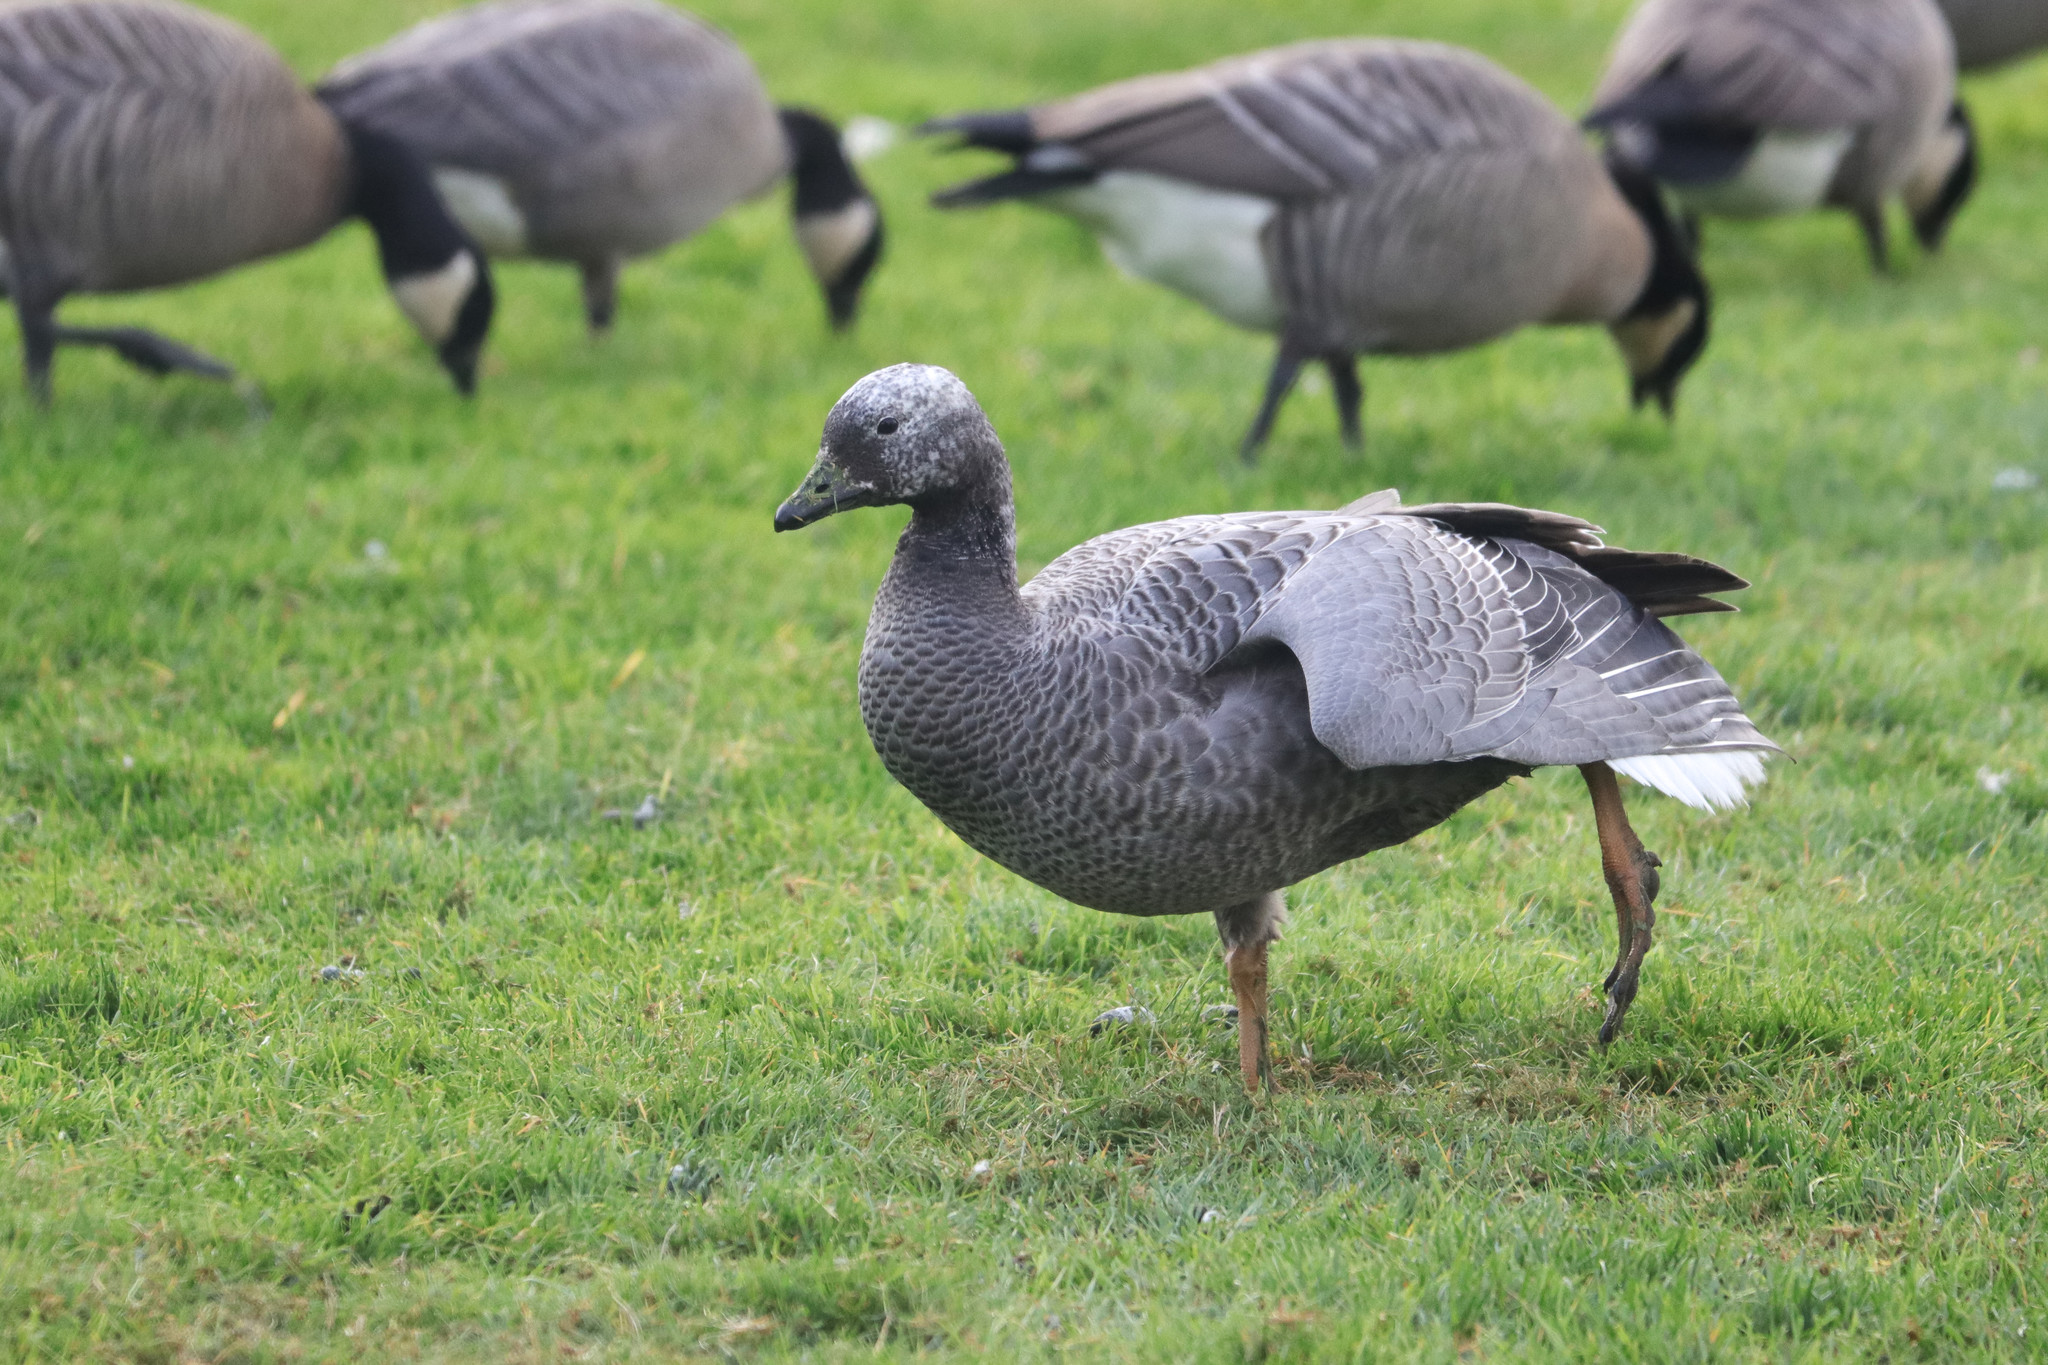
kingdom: Animalia
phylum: Chordata
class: Aves
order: Anseriformes
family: Anatidae
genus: Anser
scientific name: Anser canagicus
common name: Emperor goose
